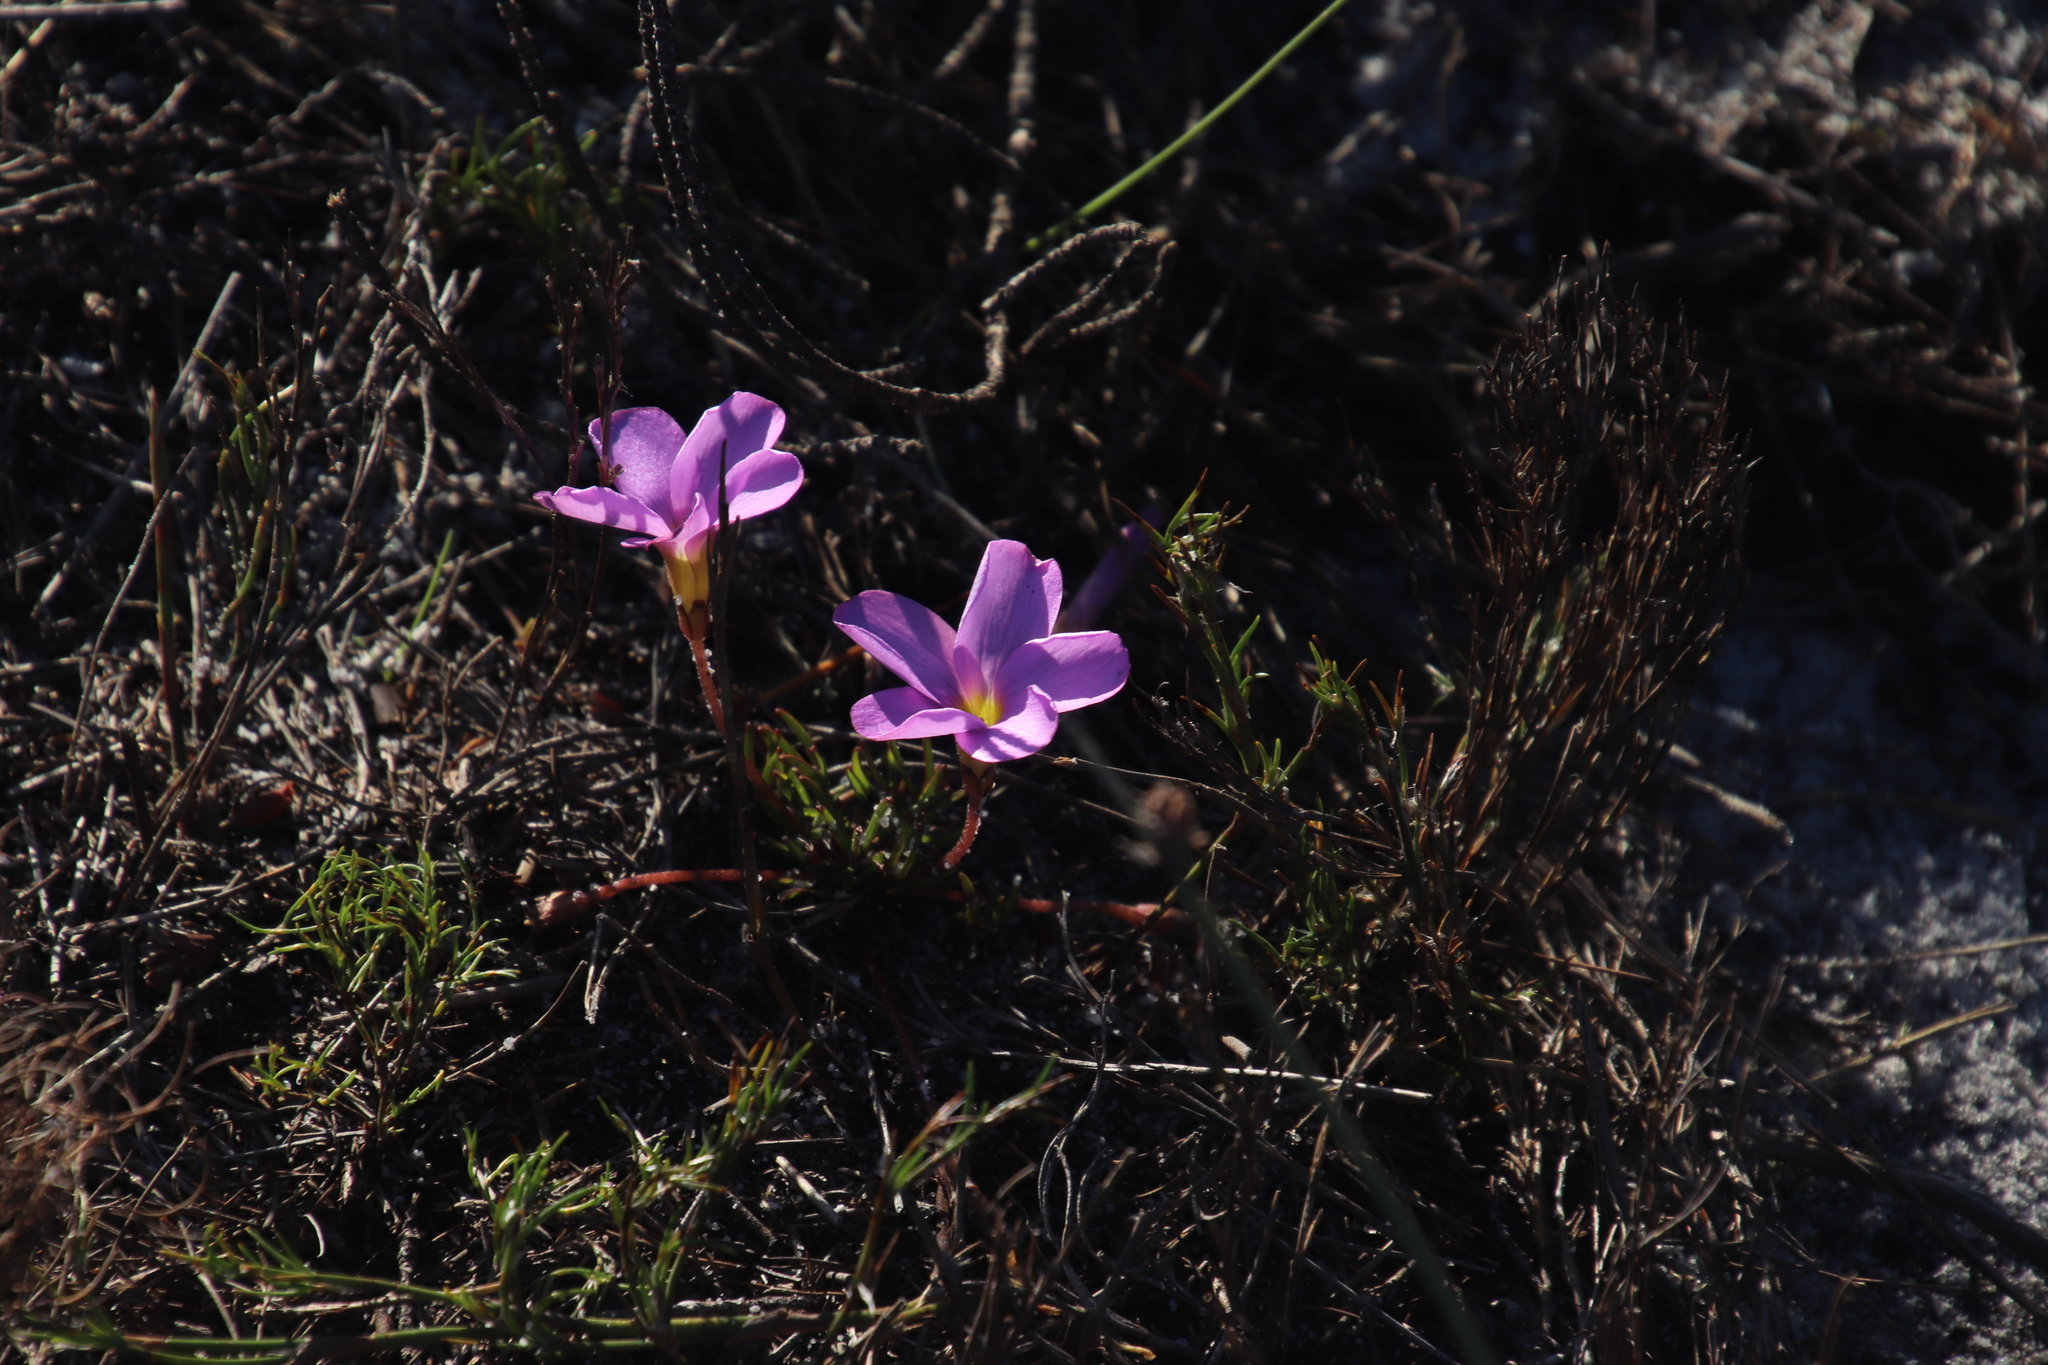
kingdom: Plantae
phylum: Tracheophyta
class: Magnoliopsida
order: Oxalidales
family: Oxalidaceae
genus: Oxalis
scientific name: Oxalis polyphylla
